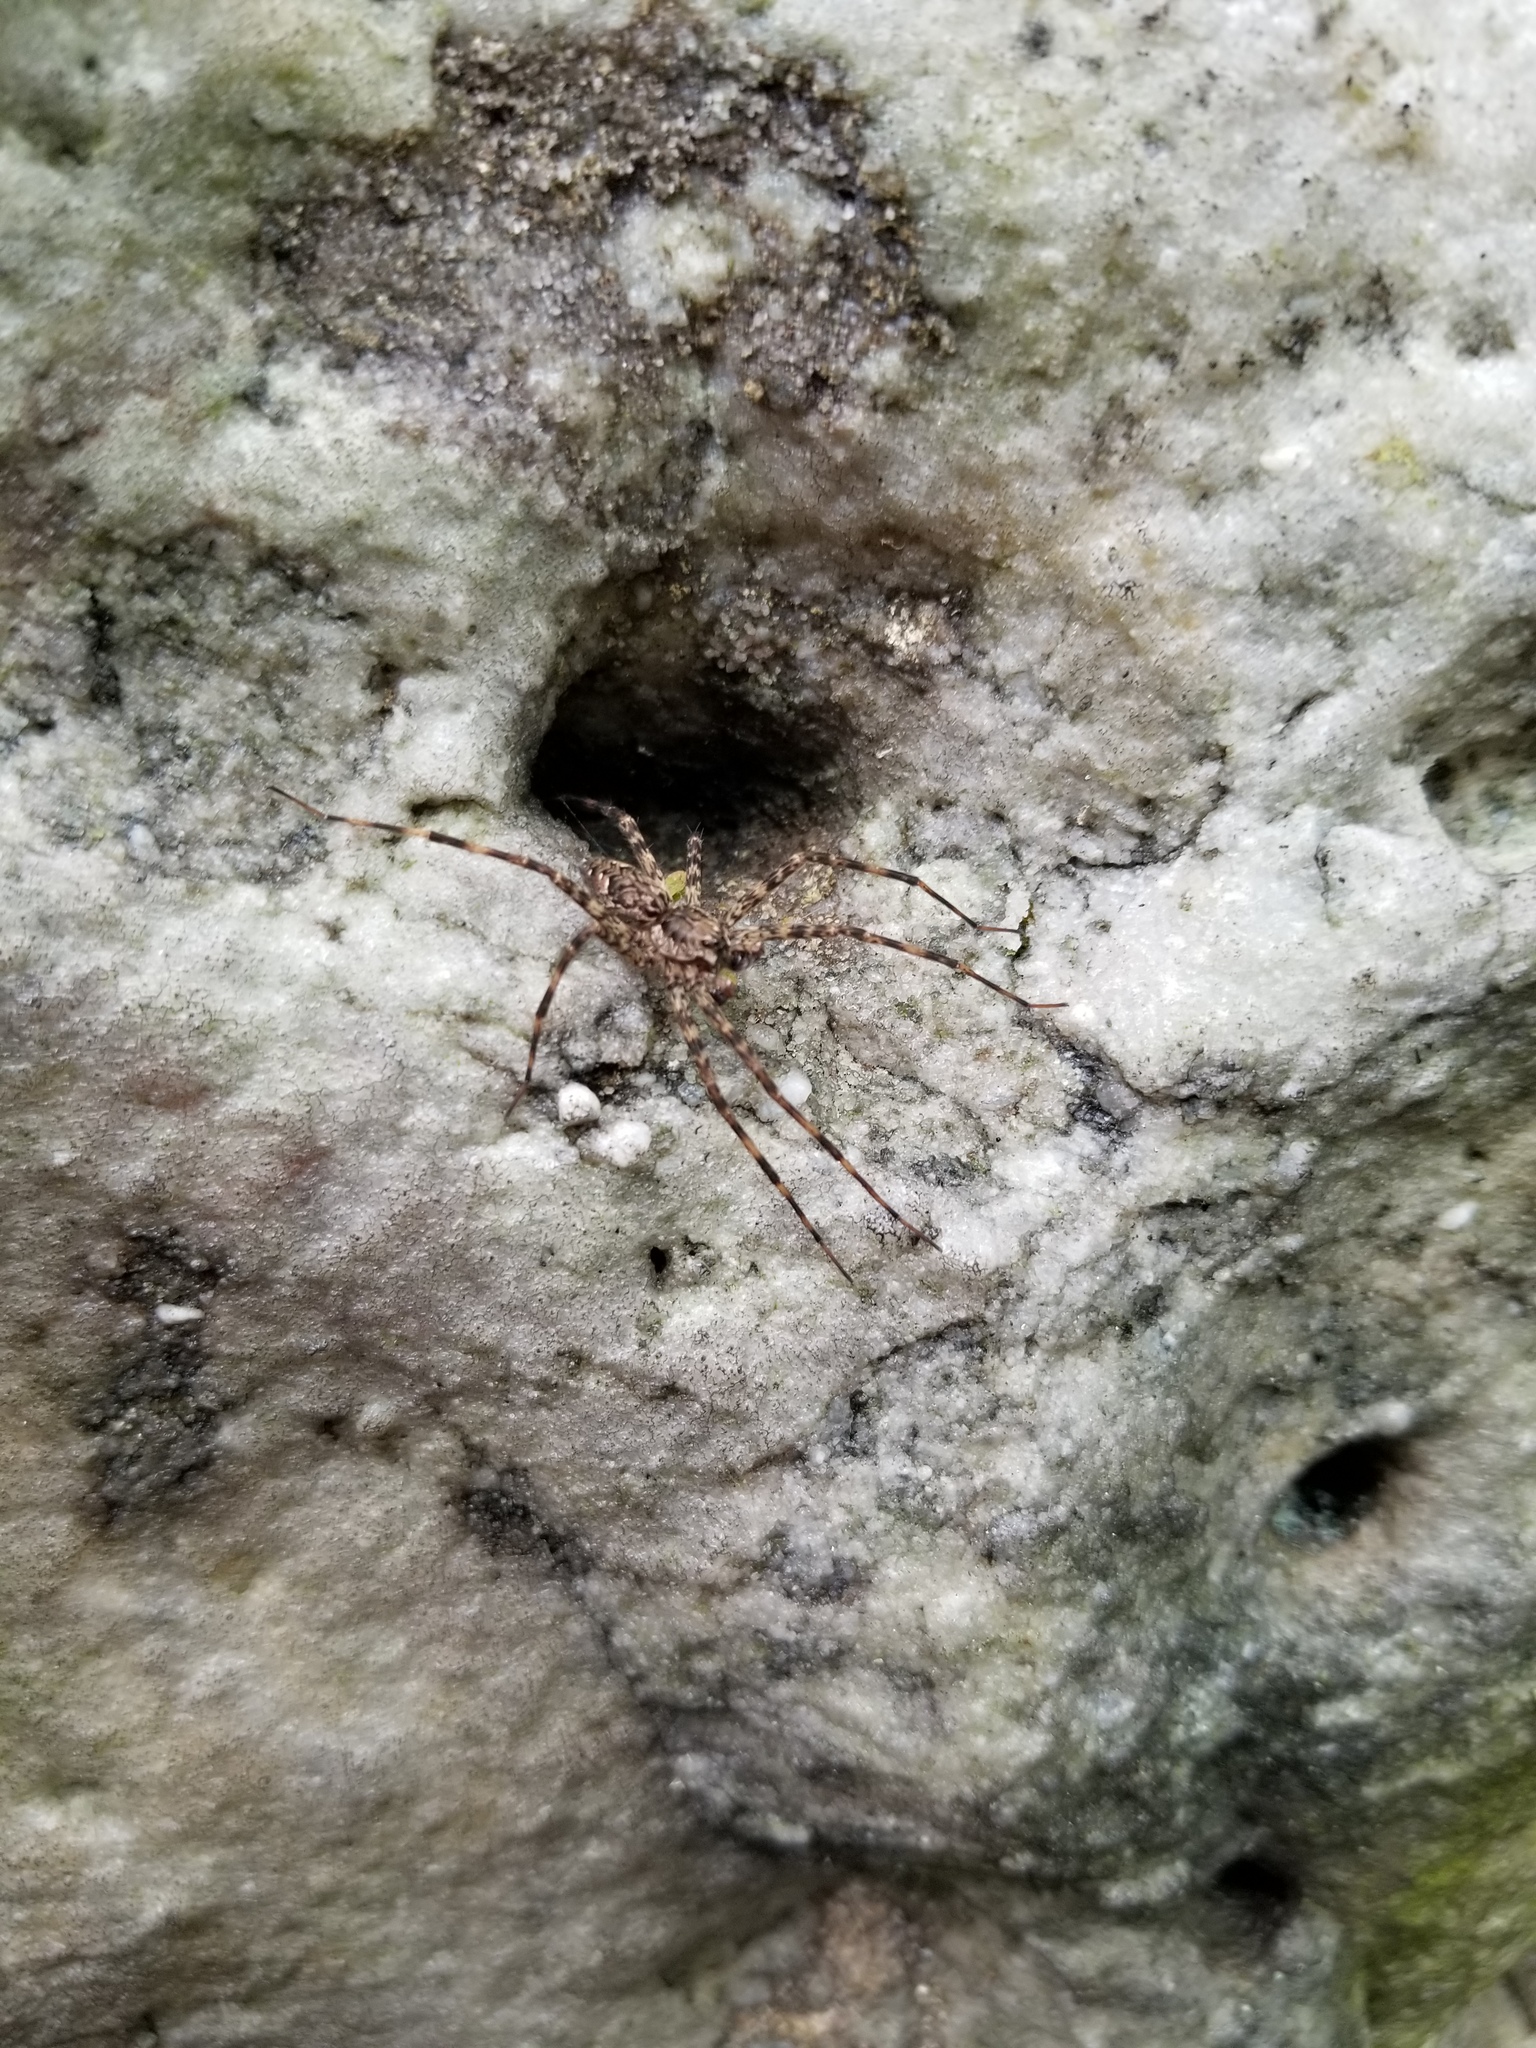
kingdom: Animalia
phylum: Arthropoda
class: Arachnida
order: Araneae
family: Pisauridae
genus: Dolomedes
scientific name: Dolomedes tenebrosus
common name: Dark fishing spider
